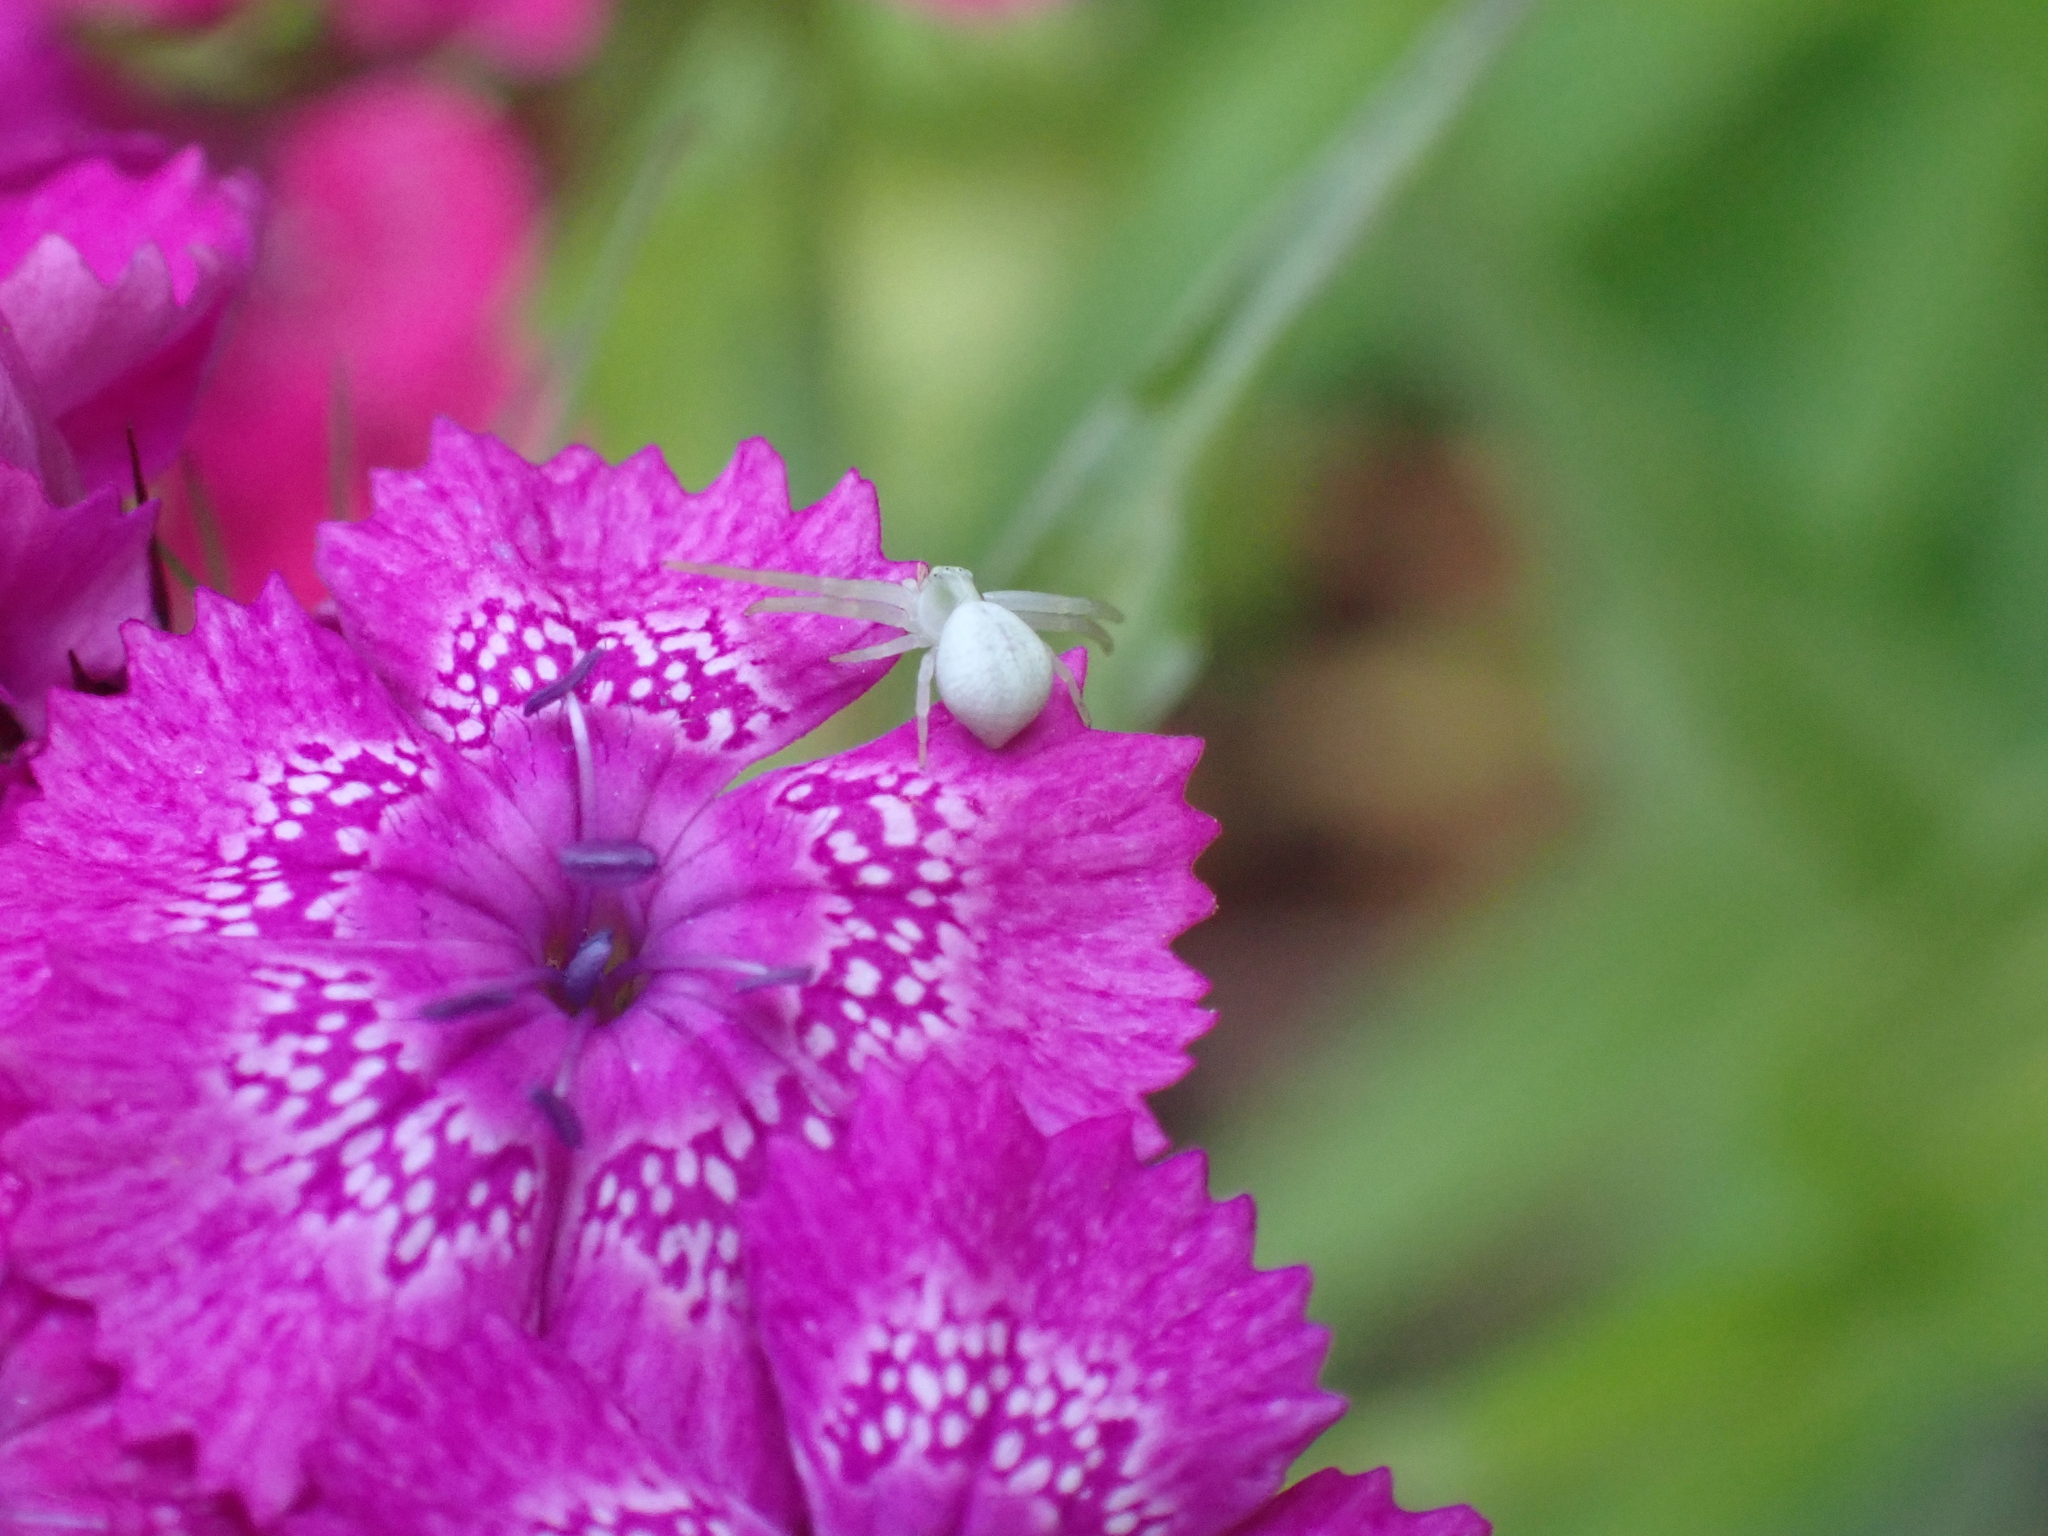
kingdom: Animalia
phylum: Arthropoda
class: Arachnida
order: Araneae
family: Thomisidae
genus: Misumena
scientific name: Misumena vatia
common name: Goldenrod crab spider
